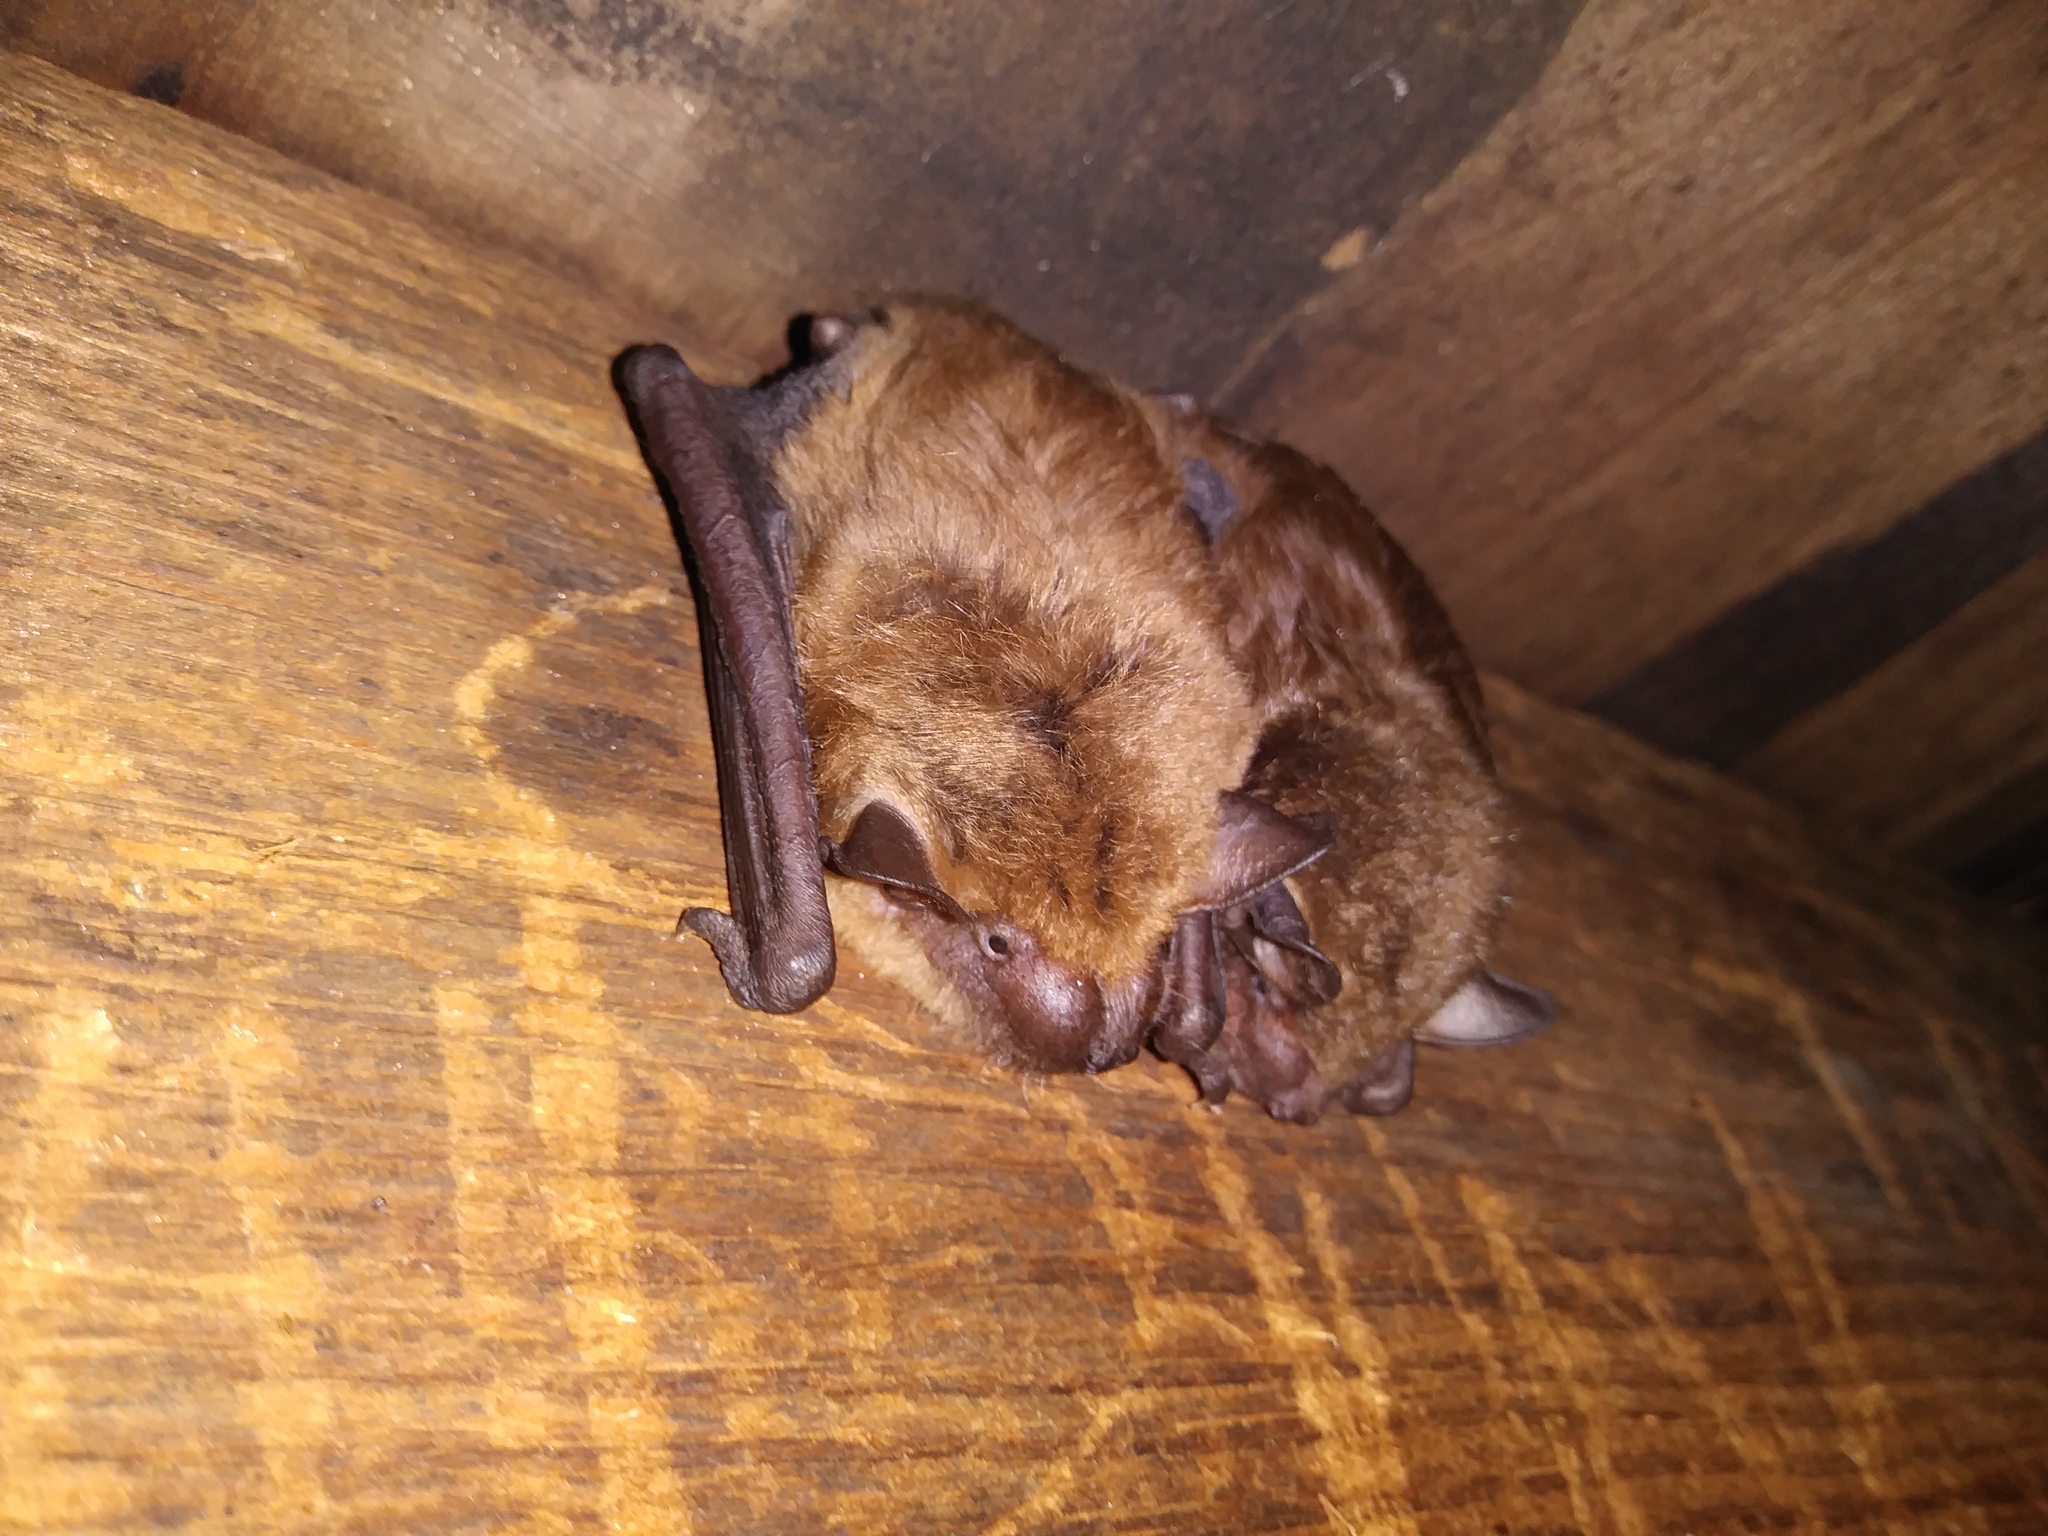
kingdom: Animalia
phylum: Chordata
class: Mammalia
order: Chiroptera
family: Vespertilionidae
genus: Eptesicus
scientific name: Eptesicus fuscus
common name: Big brown bat
